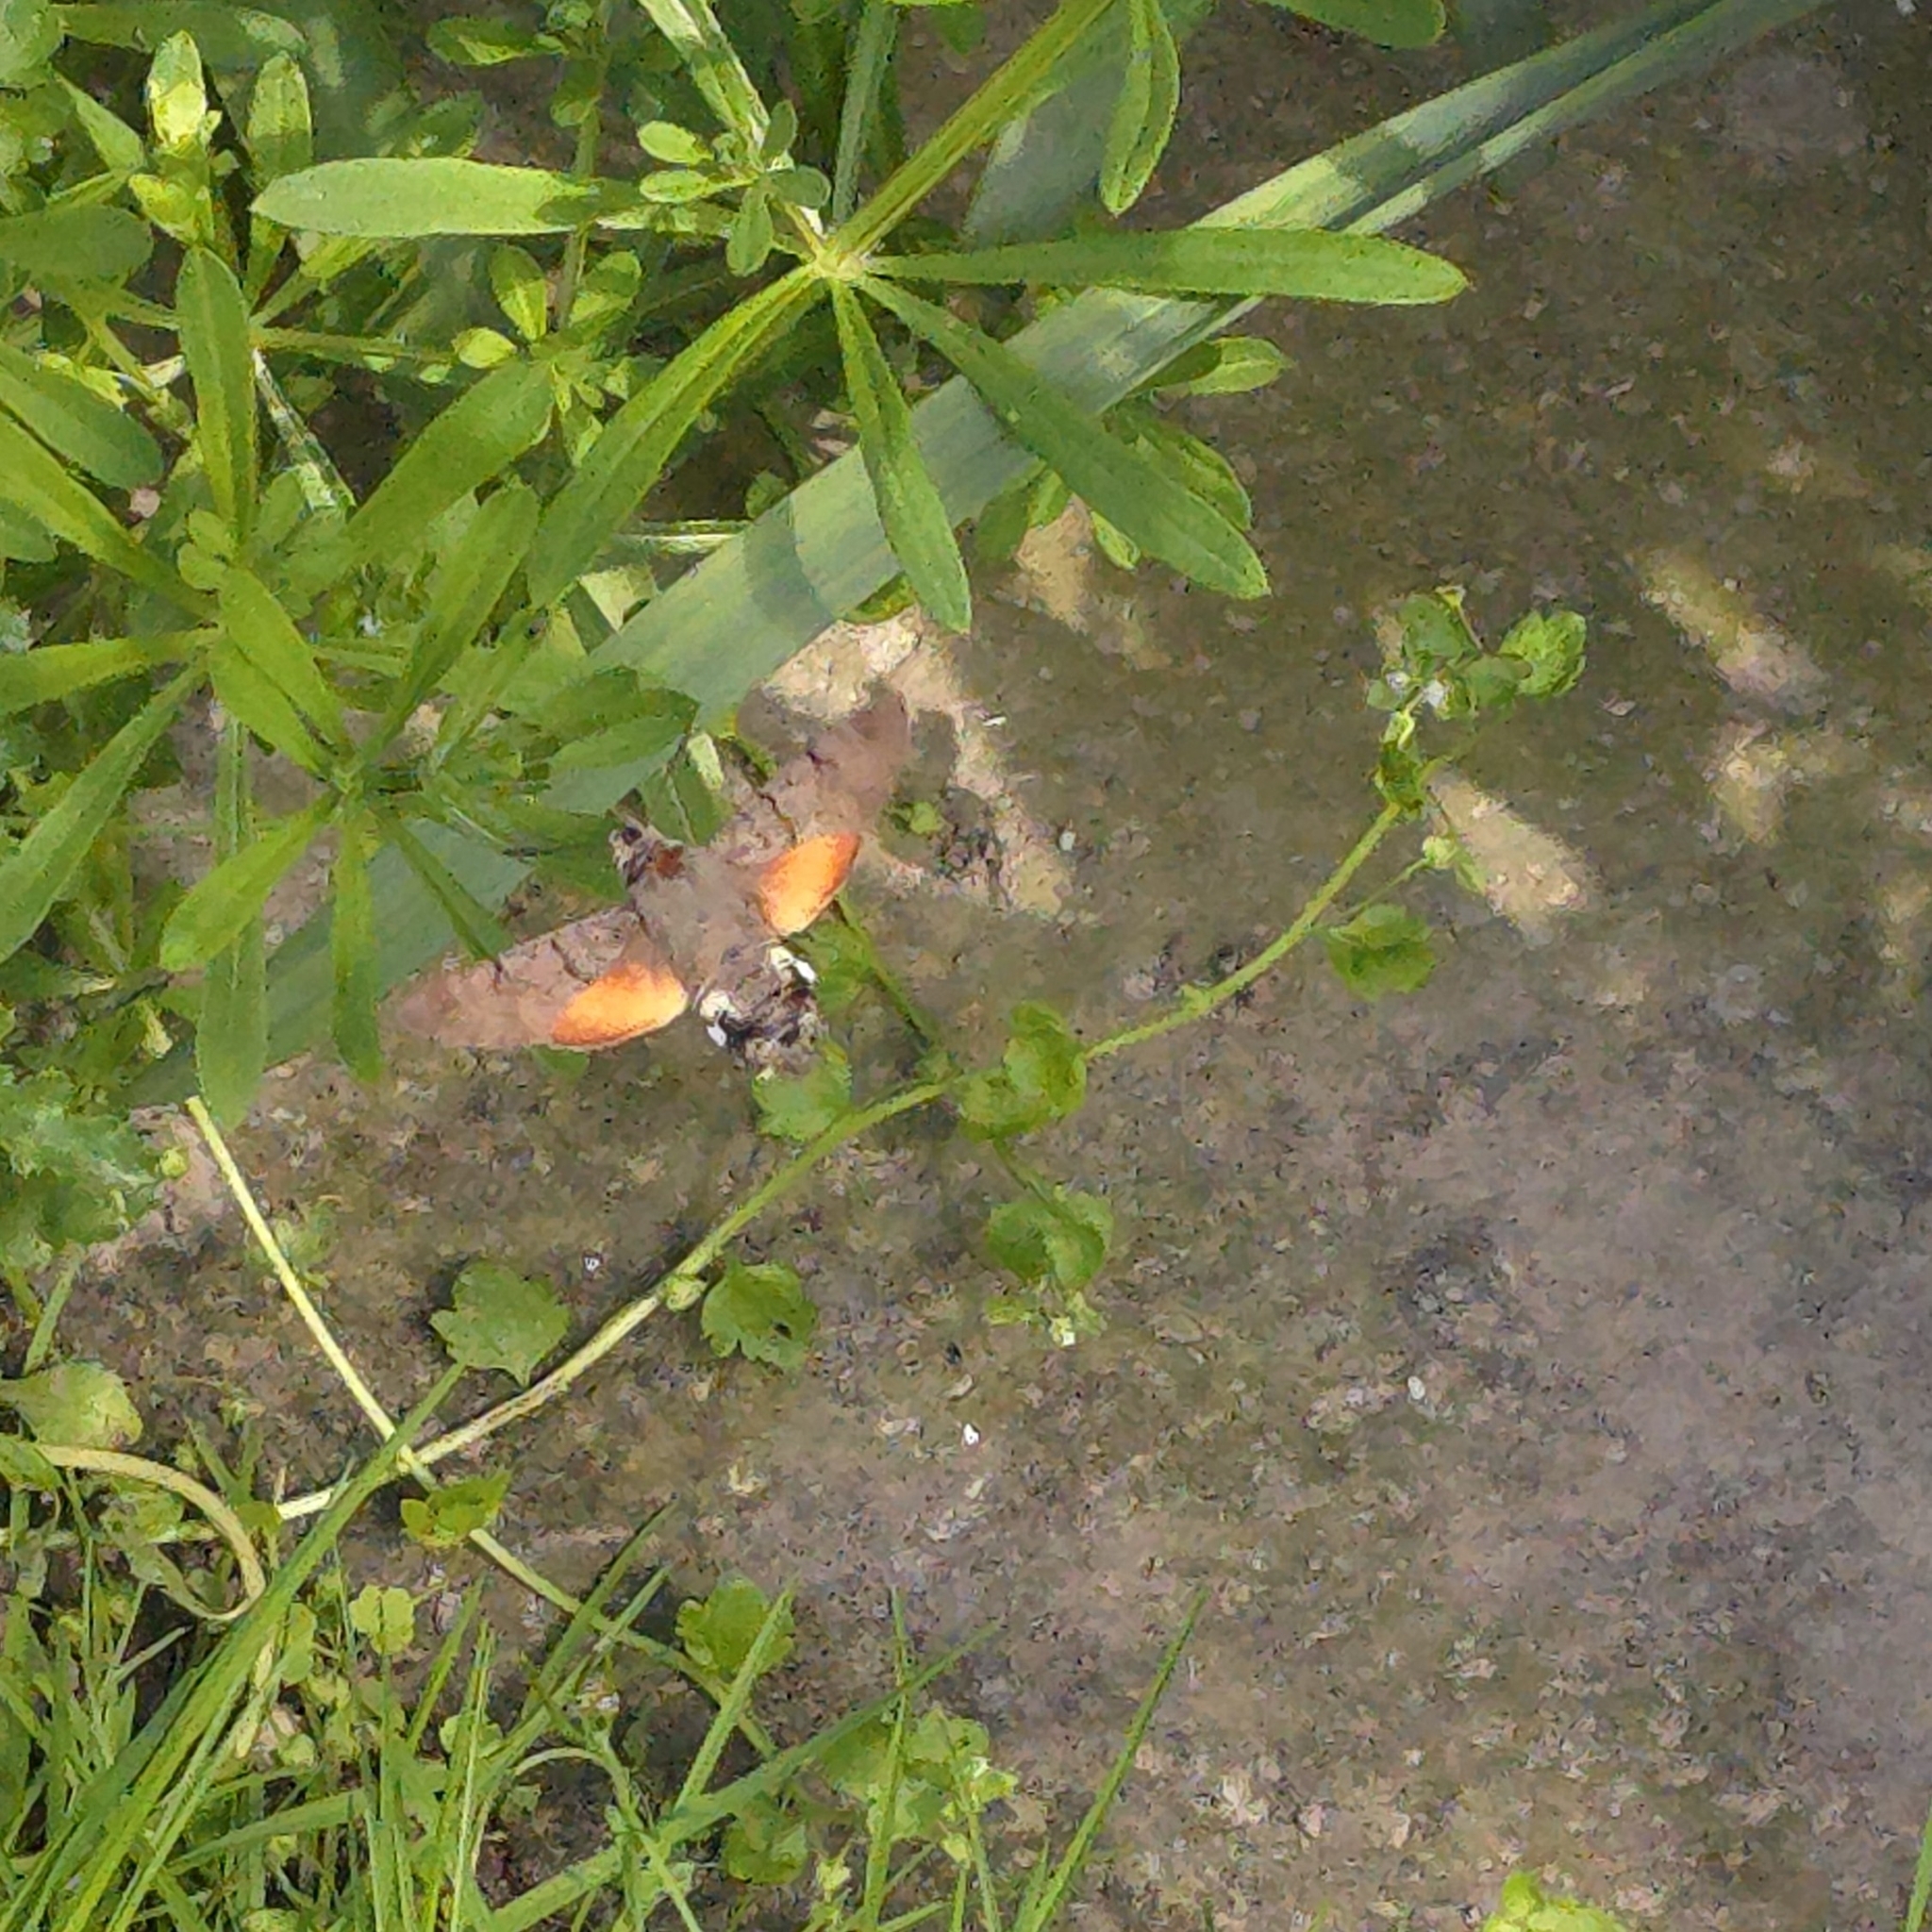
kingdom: Animalia
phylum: Arthropoda
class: Insecta
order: Lepidoptera
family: Sphingidae
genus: Macroglossum
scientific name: Macroglossum stellatarum
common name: Humming-bird hawk-moth
